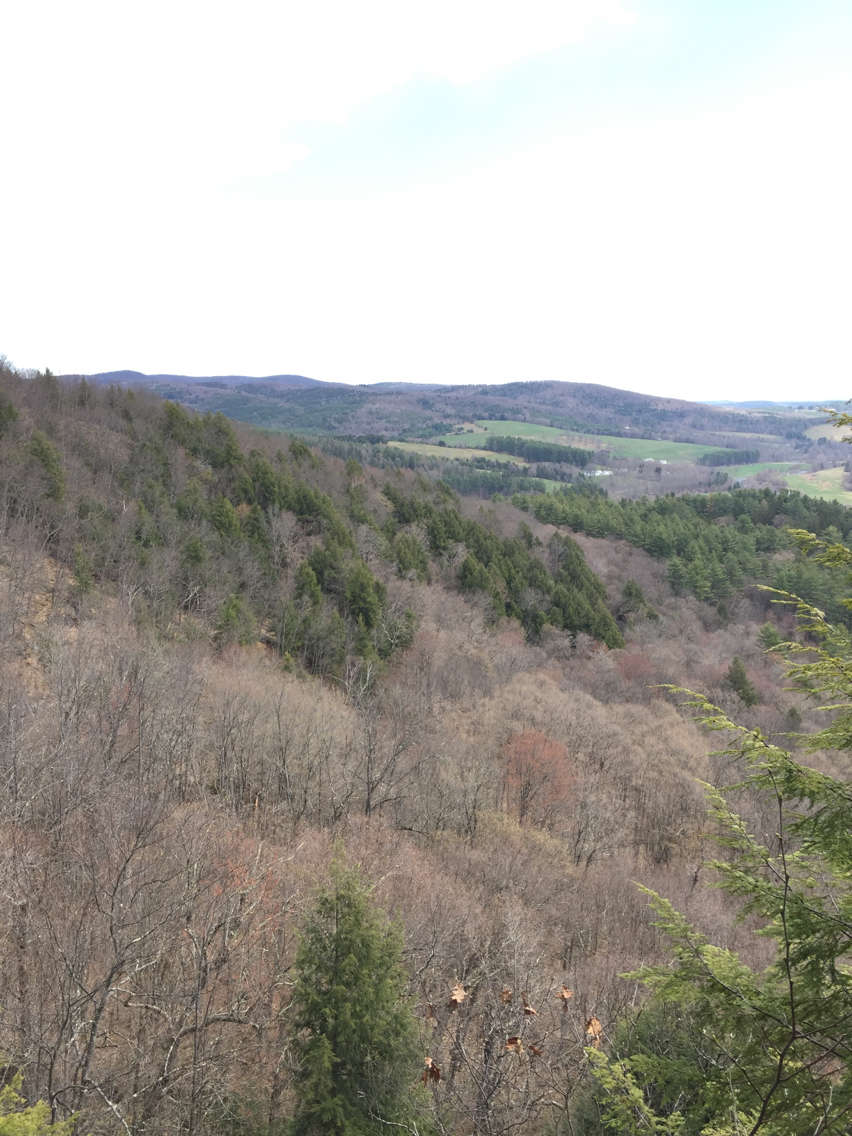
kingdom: Plantae
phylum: Tracheophyta
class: Magnoliopsida
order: Fagales
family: Fagaceae
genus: Quercus
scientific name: Quercus rubra
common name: Red oak
